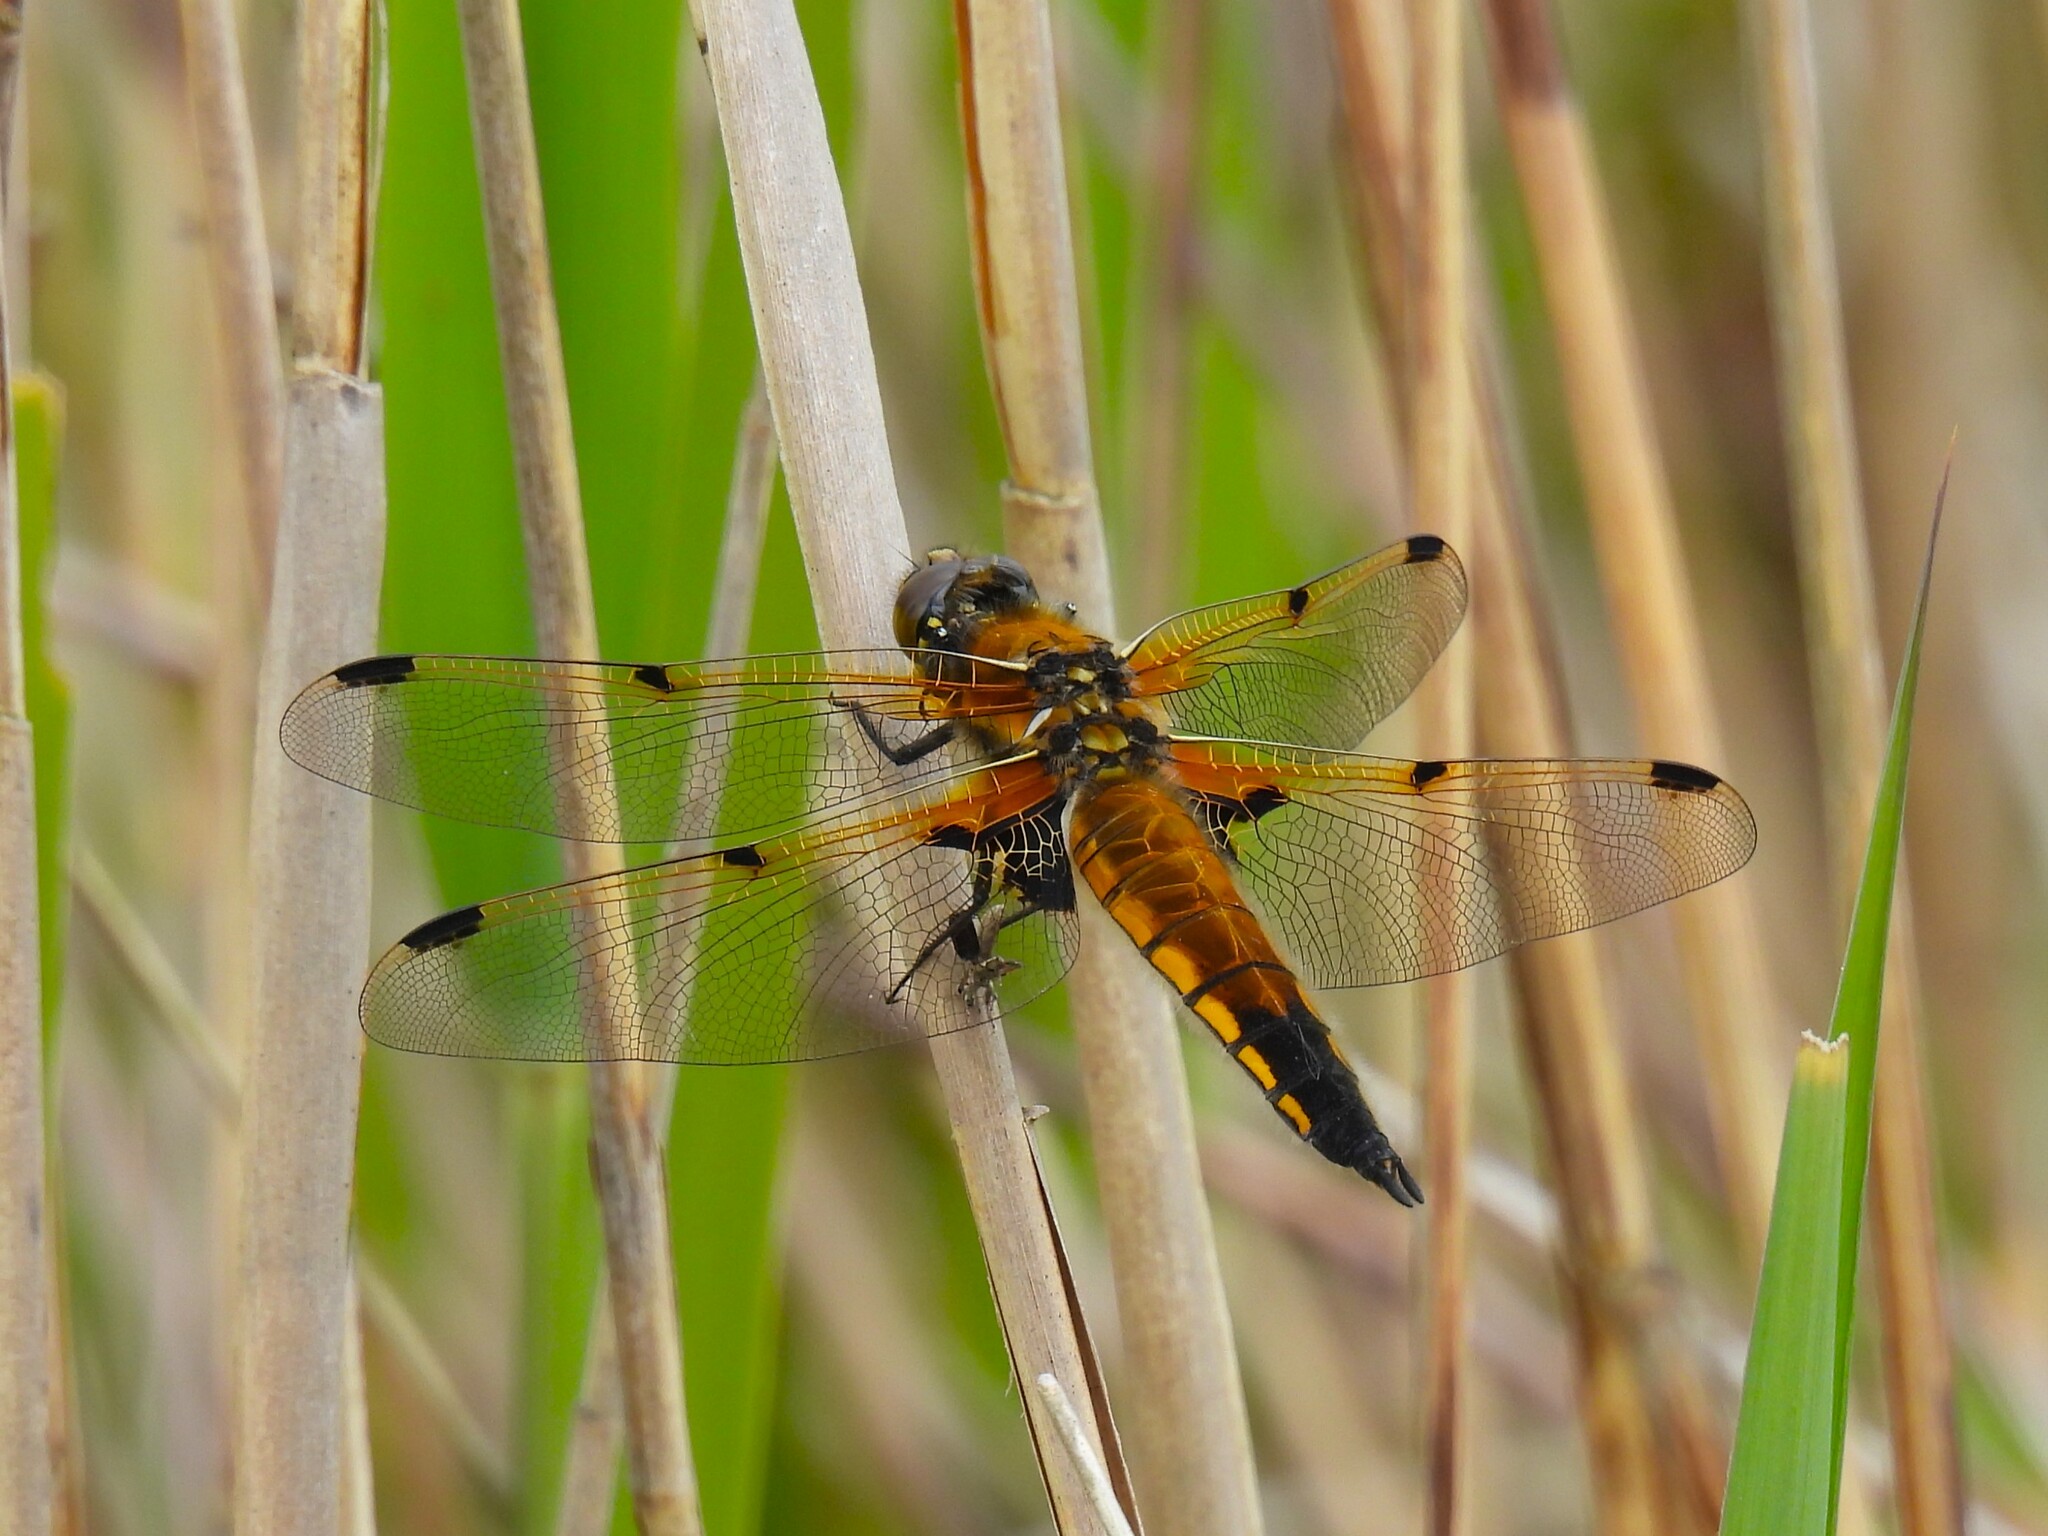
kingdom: Animalia
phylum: Arthropoda
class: Insecta
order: Odonata
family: Libellulidae
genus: Libellula
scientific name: Libellula quadrimaculata
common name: Four-spotted chaser
